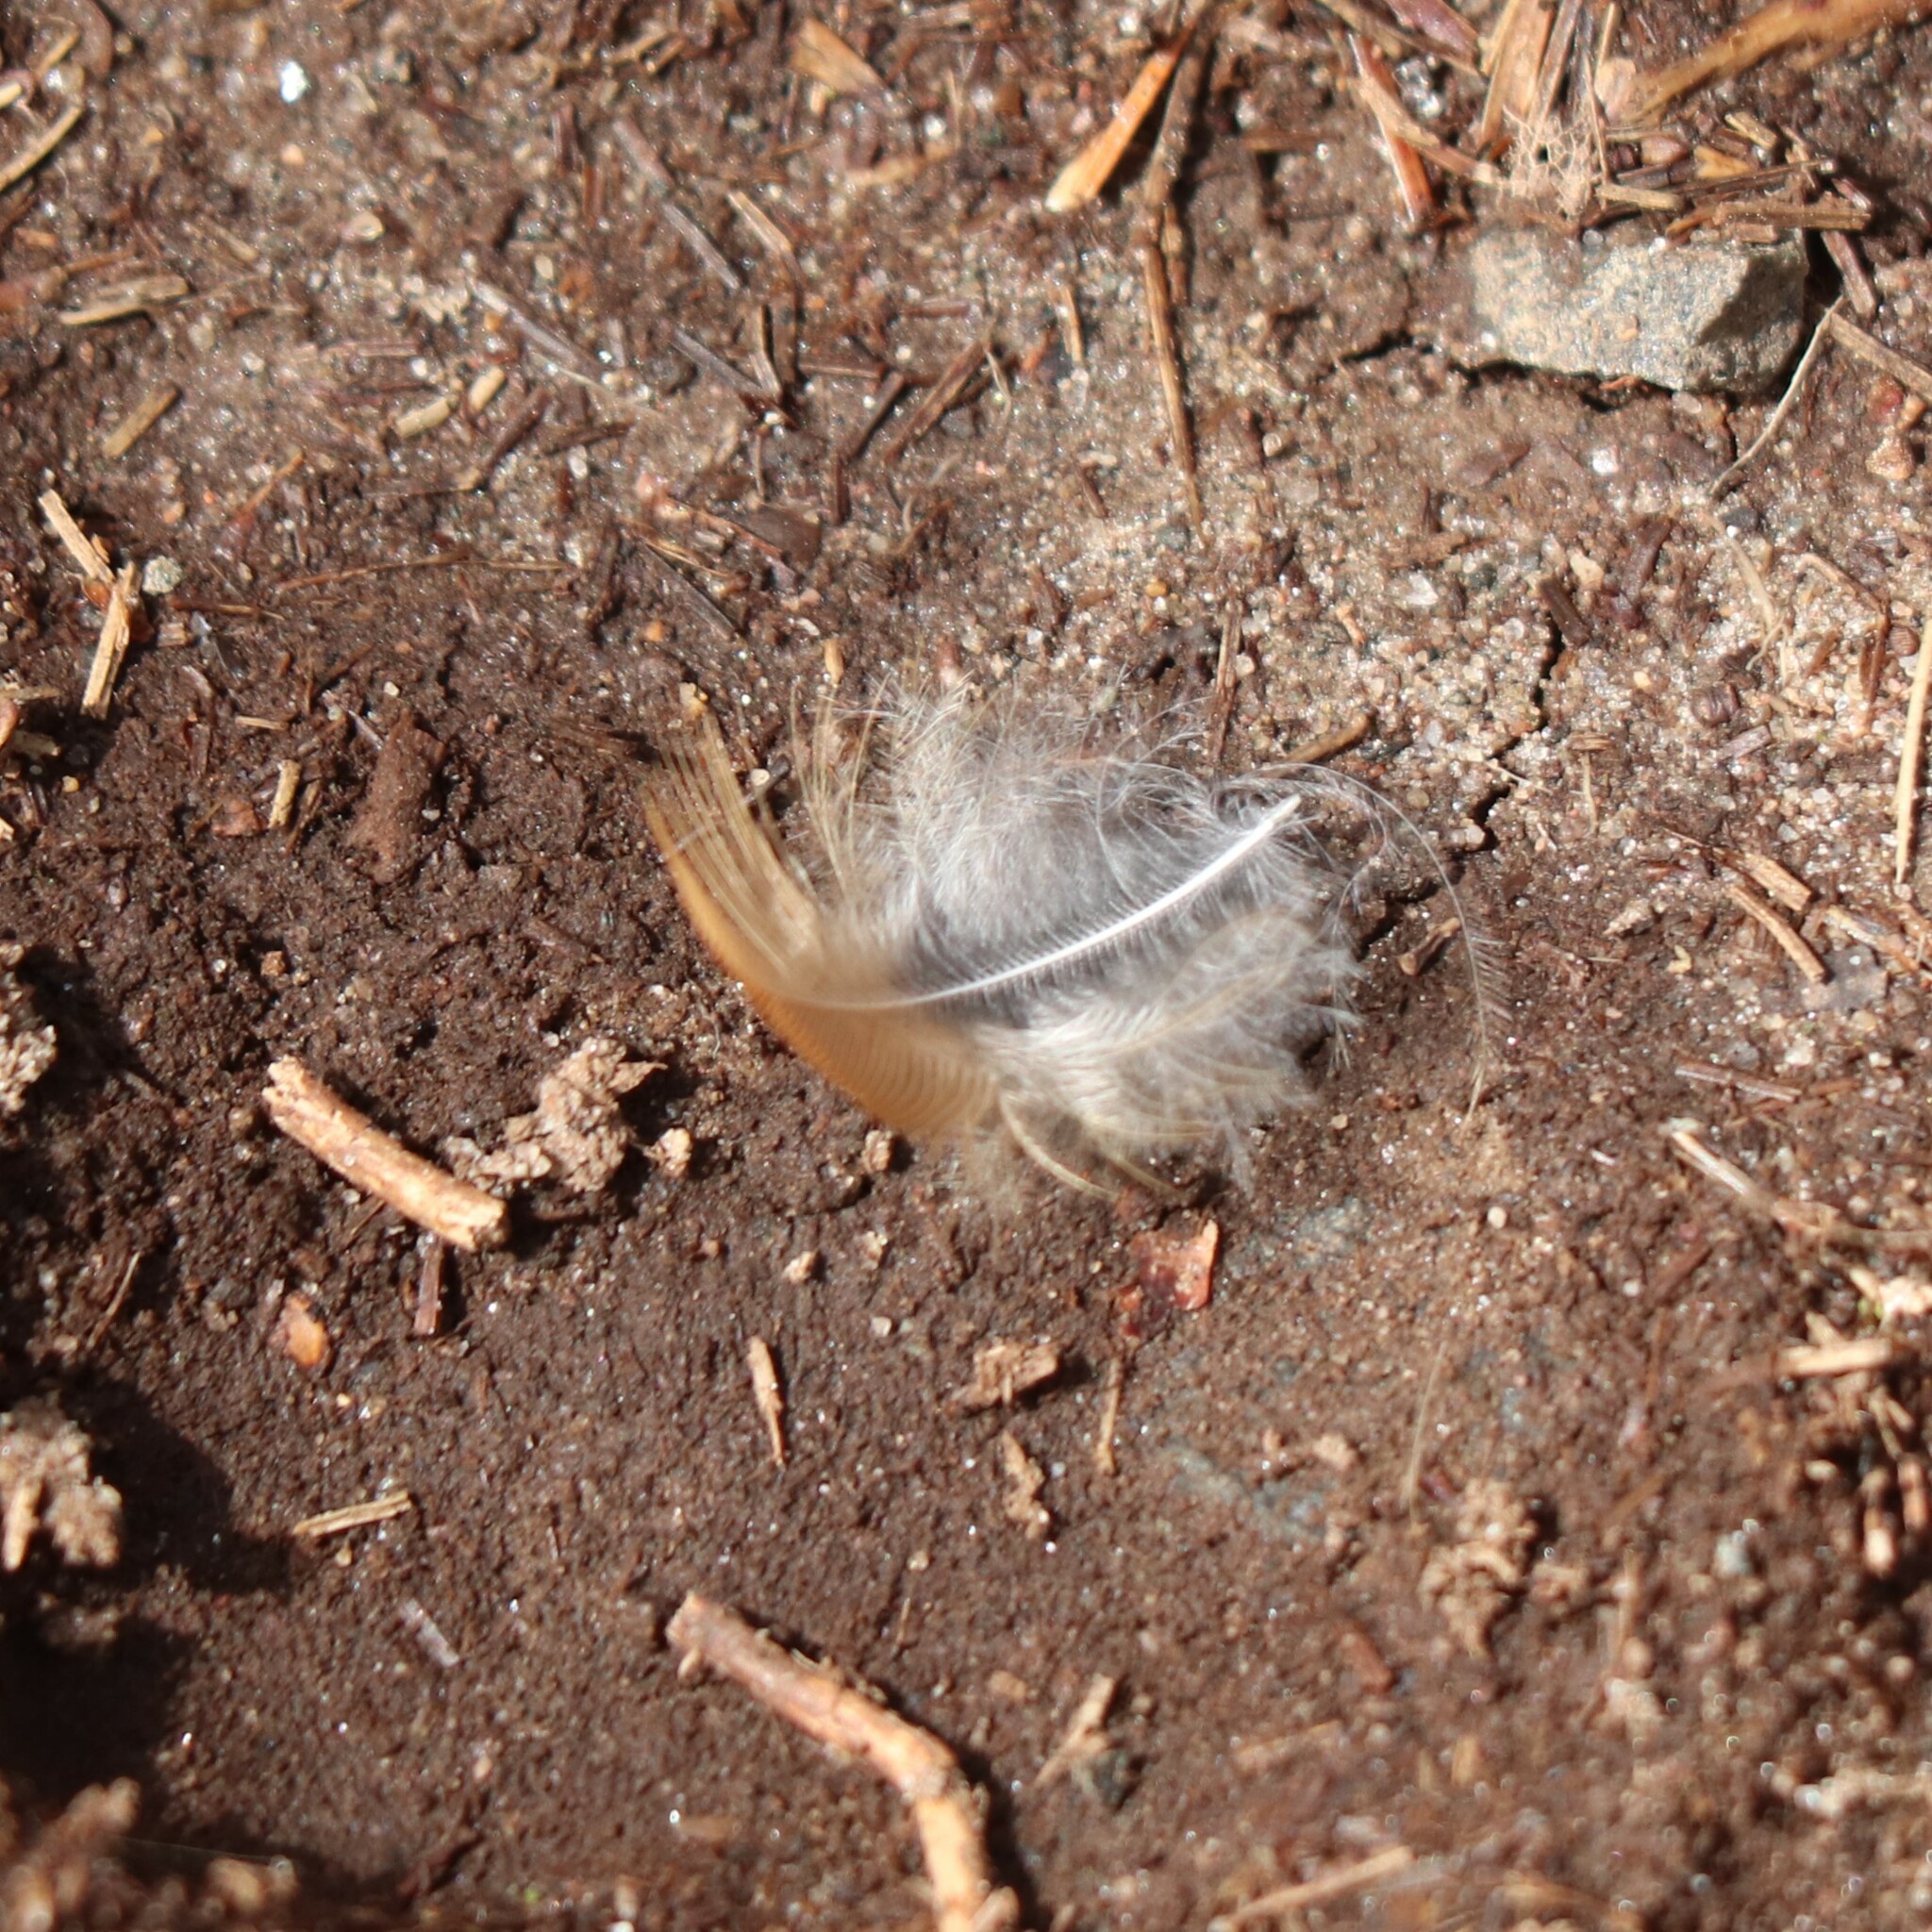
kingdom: Animalia
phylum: Chordata
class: Aves
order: Passeriformes
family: Turdidae
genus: Turdus
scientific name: Turdus migratorius
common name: American robin
